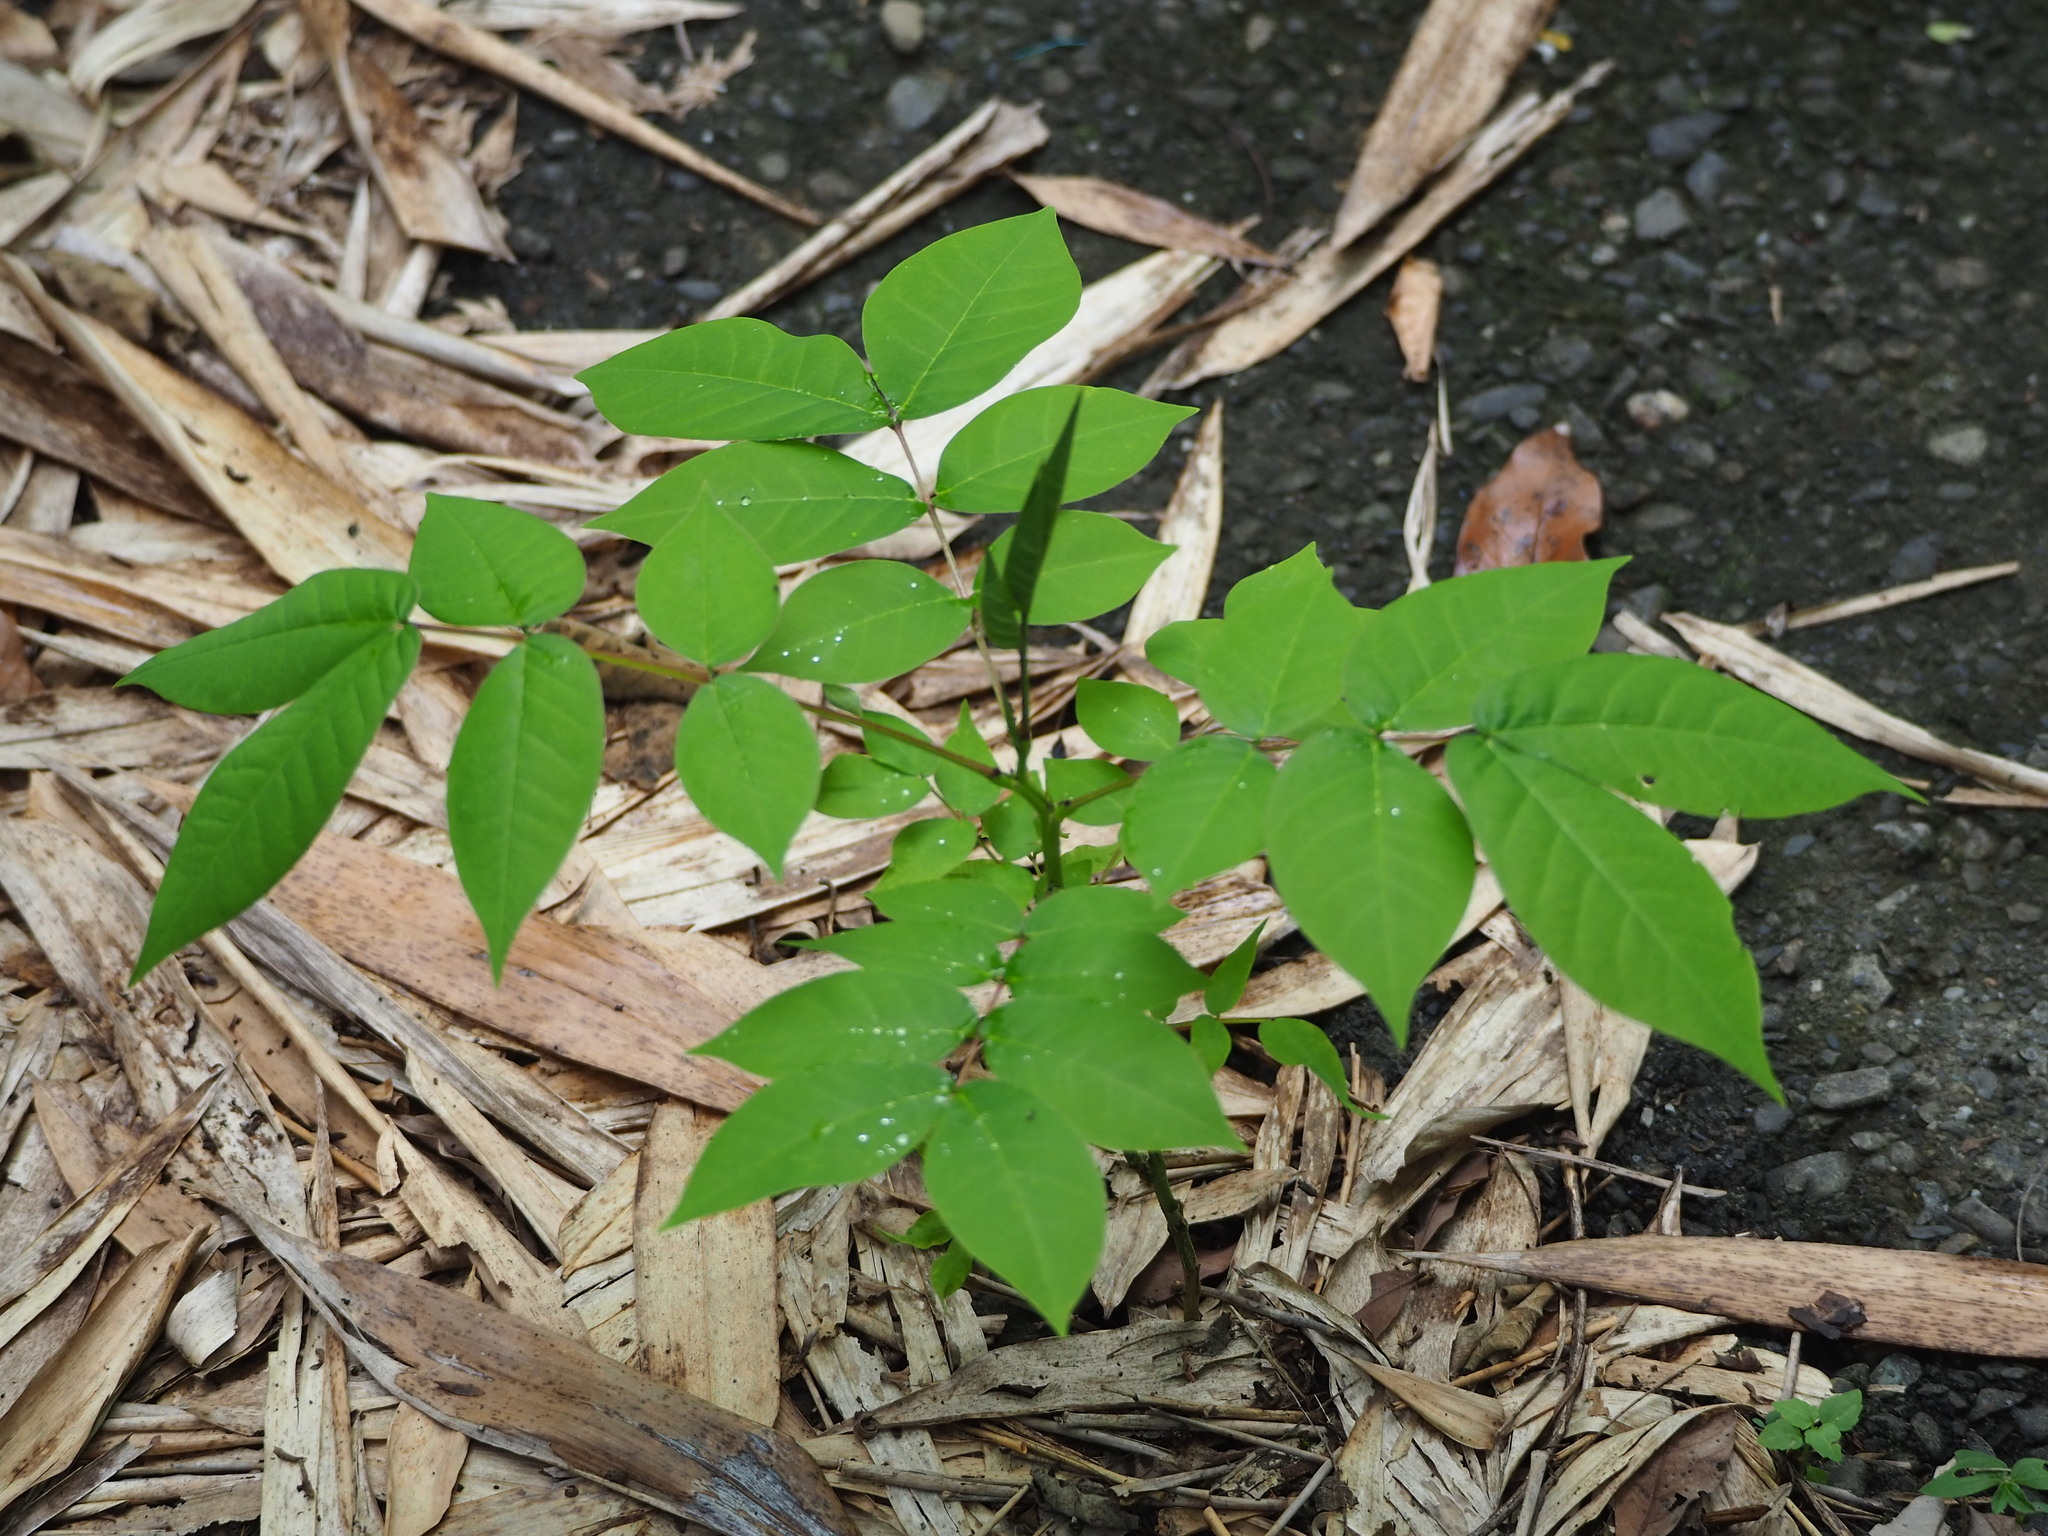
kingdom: Plantae
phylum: Tracheophyta
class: Magnoliopsida
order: Fabales
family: Fabaceae
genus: Senna
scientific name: Senna occidentalis
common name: Septicweed
